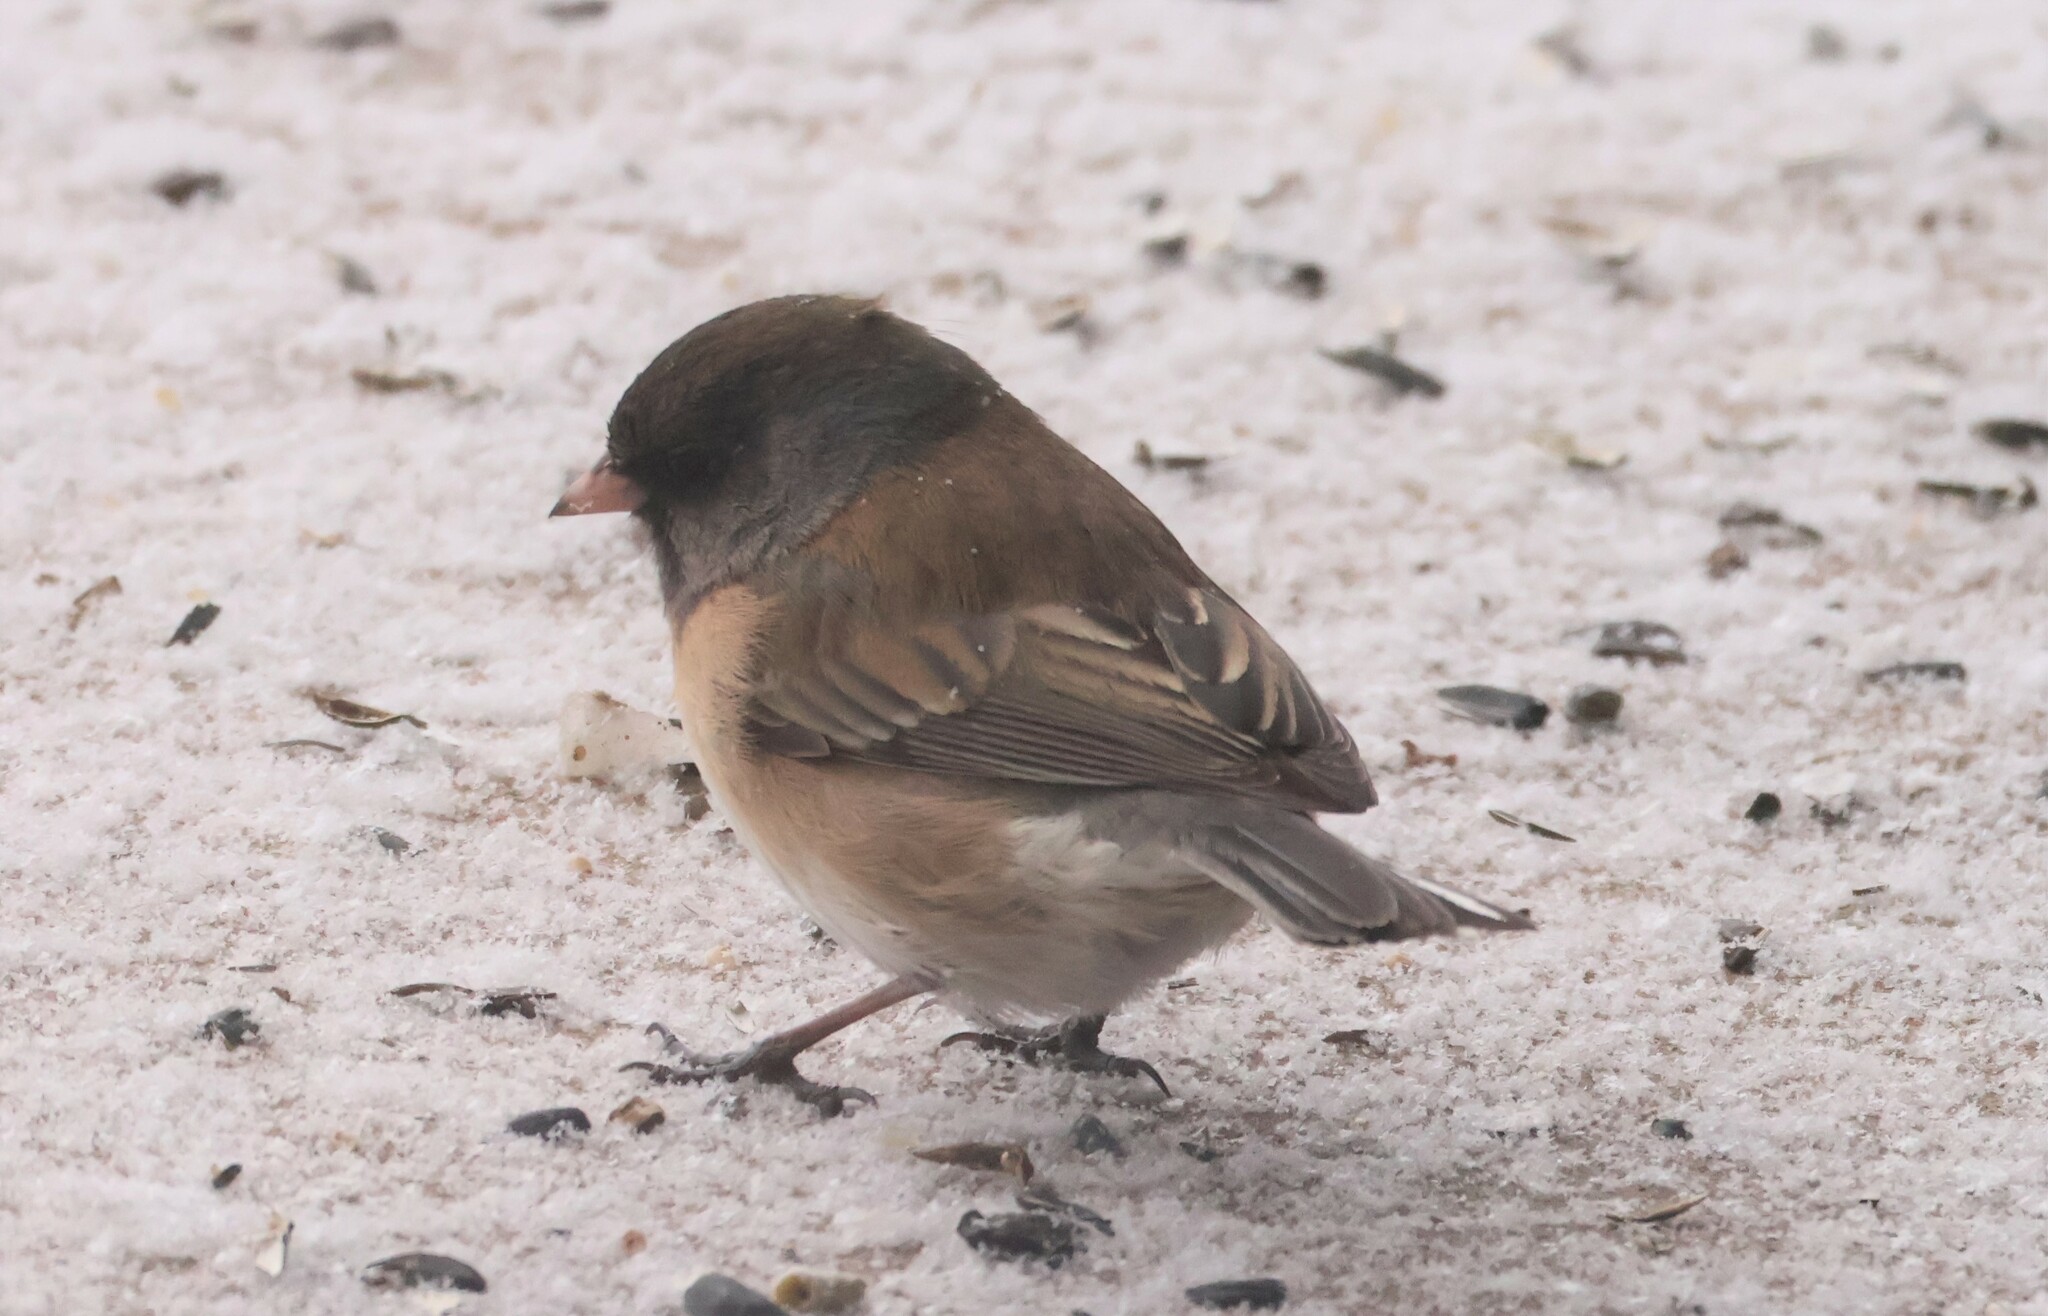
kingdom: Animalia
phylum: Chordata
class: Aves
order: Passeriformes
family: Passerellidae
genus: Junco
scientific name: Junco hyemalis
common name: Dark-eyed junco
